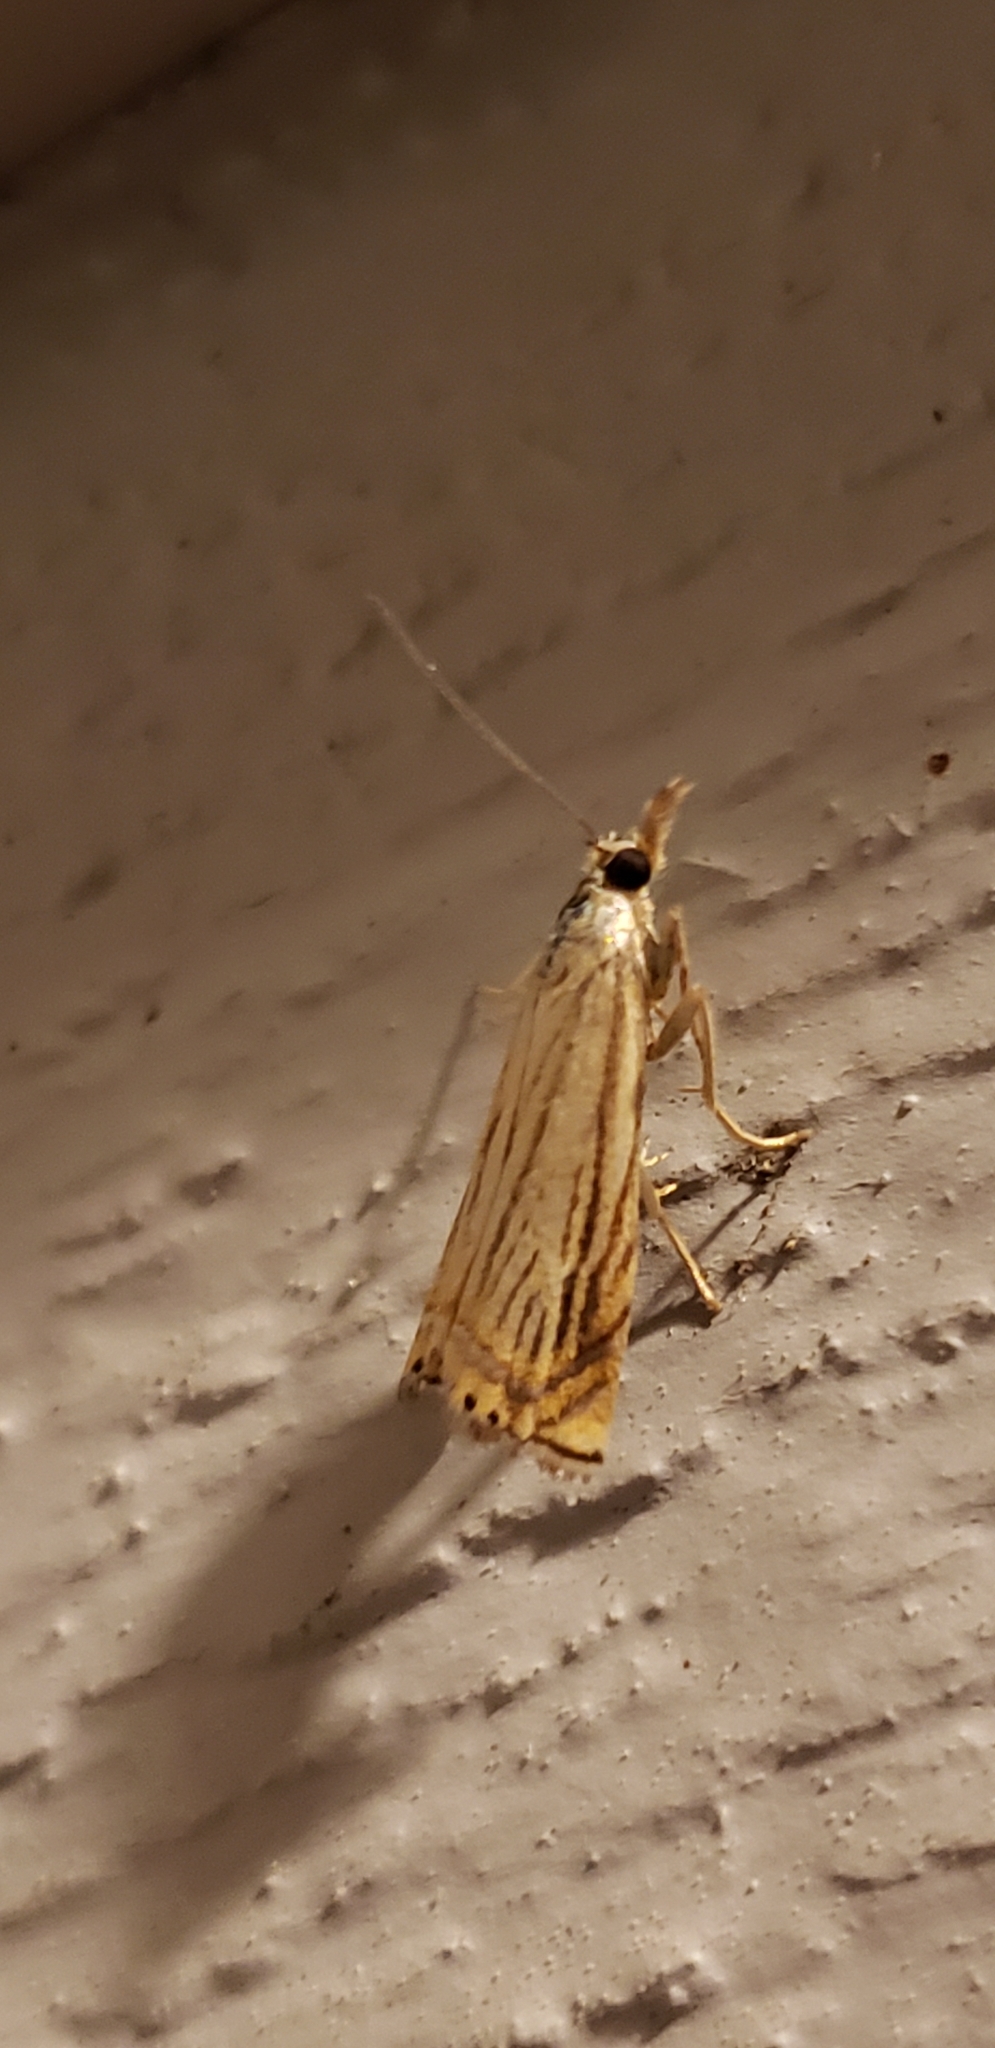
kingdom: Animalia
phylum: Arthropoda
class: Insecta
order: Lepidoptera
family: Crambidae
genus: Chrysoteuchia
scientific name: Chrysoteuchia topiarius
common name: Topiary grass-veneer
